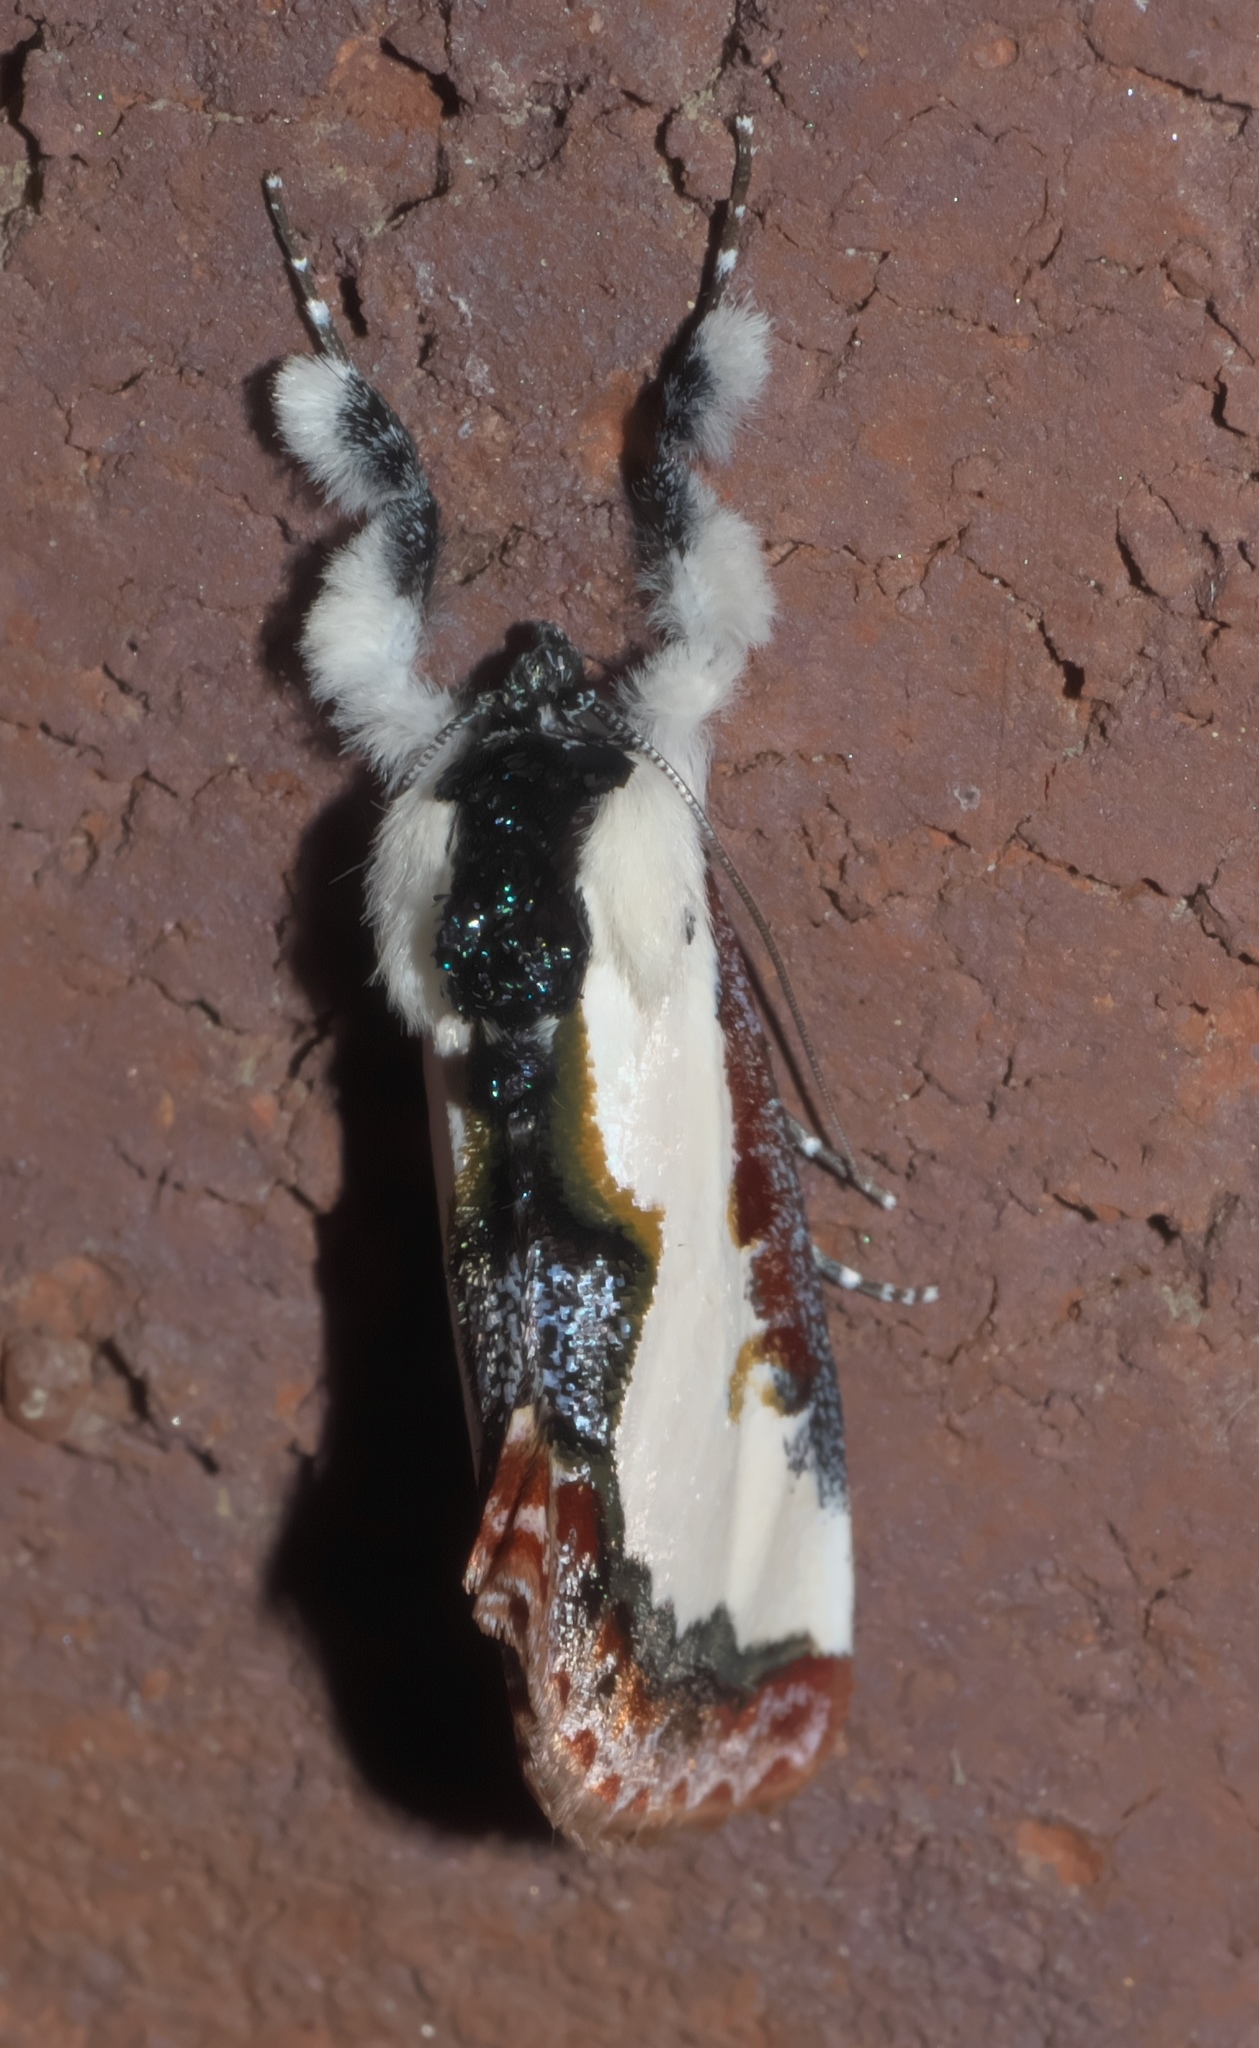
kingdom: Animalia
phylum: Arthropoda
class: Insecta
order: Lepidoptera
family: Noctuidae
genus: Eudryas
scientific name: Eudryas unio
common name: Pearly wood-nymph
